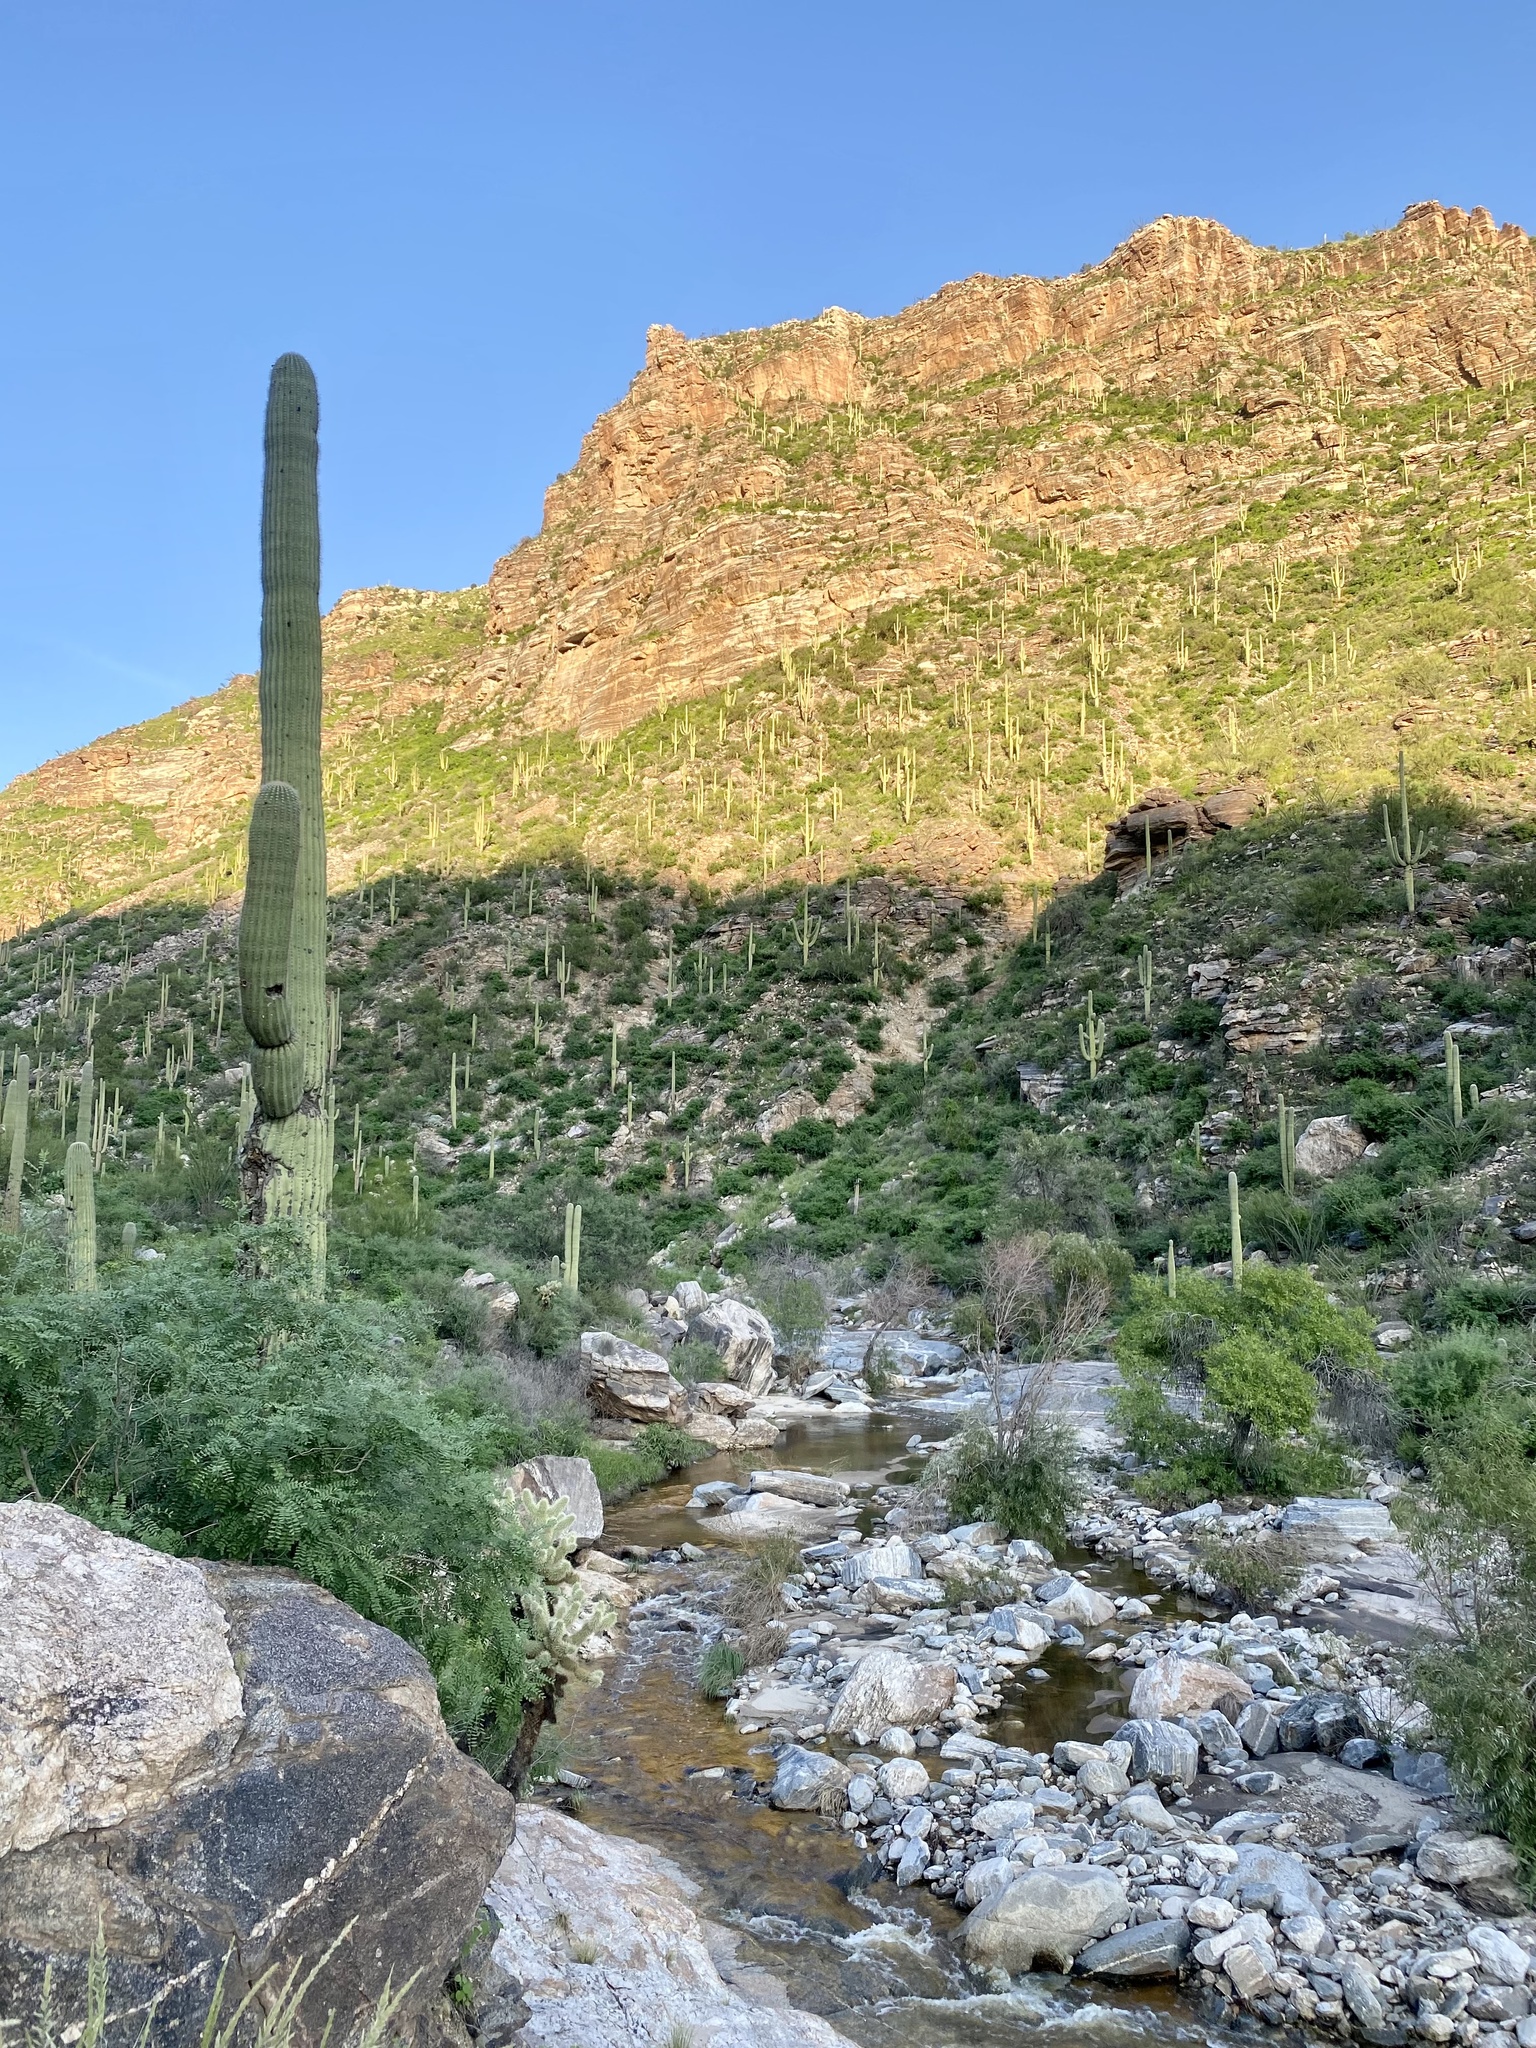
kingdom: Plantae
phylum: Tracheophyta
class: Magnoliopsida
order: Caryophyllales
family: Cactaceae
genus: Carnegiea
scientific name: Carnegiea gigantea
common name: Saguaro
